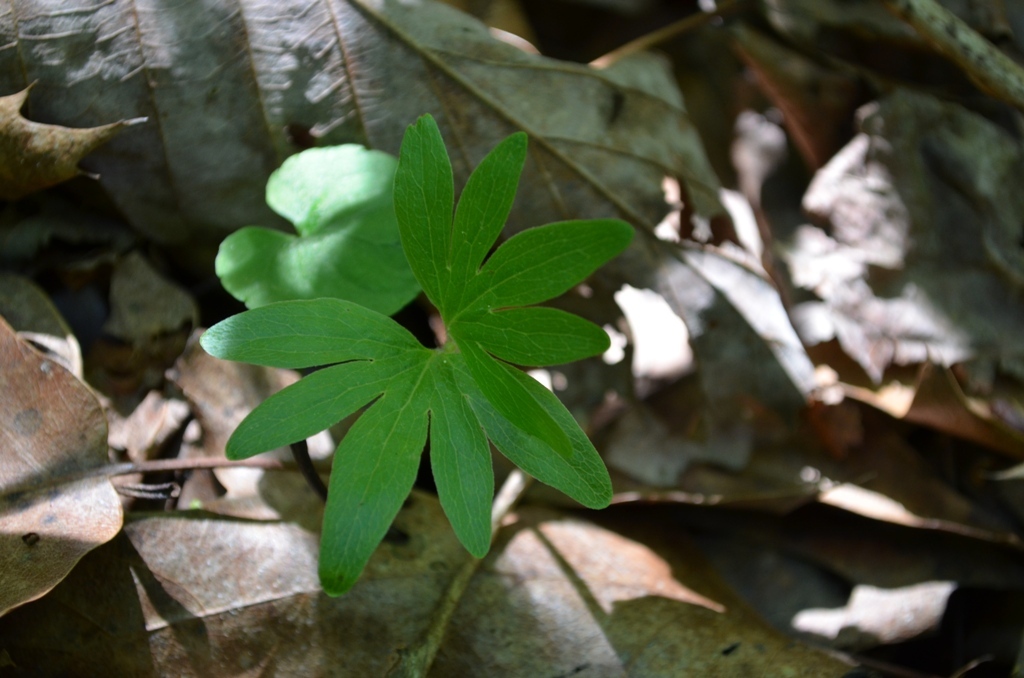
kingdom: Plantae
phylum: Tracheophyta
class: Magnoliopsida
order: Malvales
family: Malvaceae
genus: Tilia
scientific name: Tilia americana
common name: Basswood
